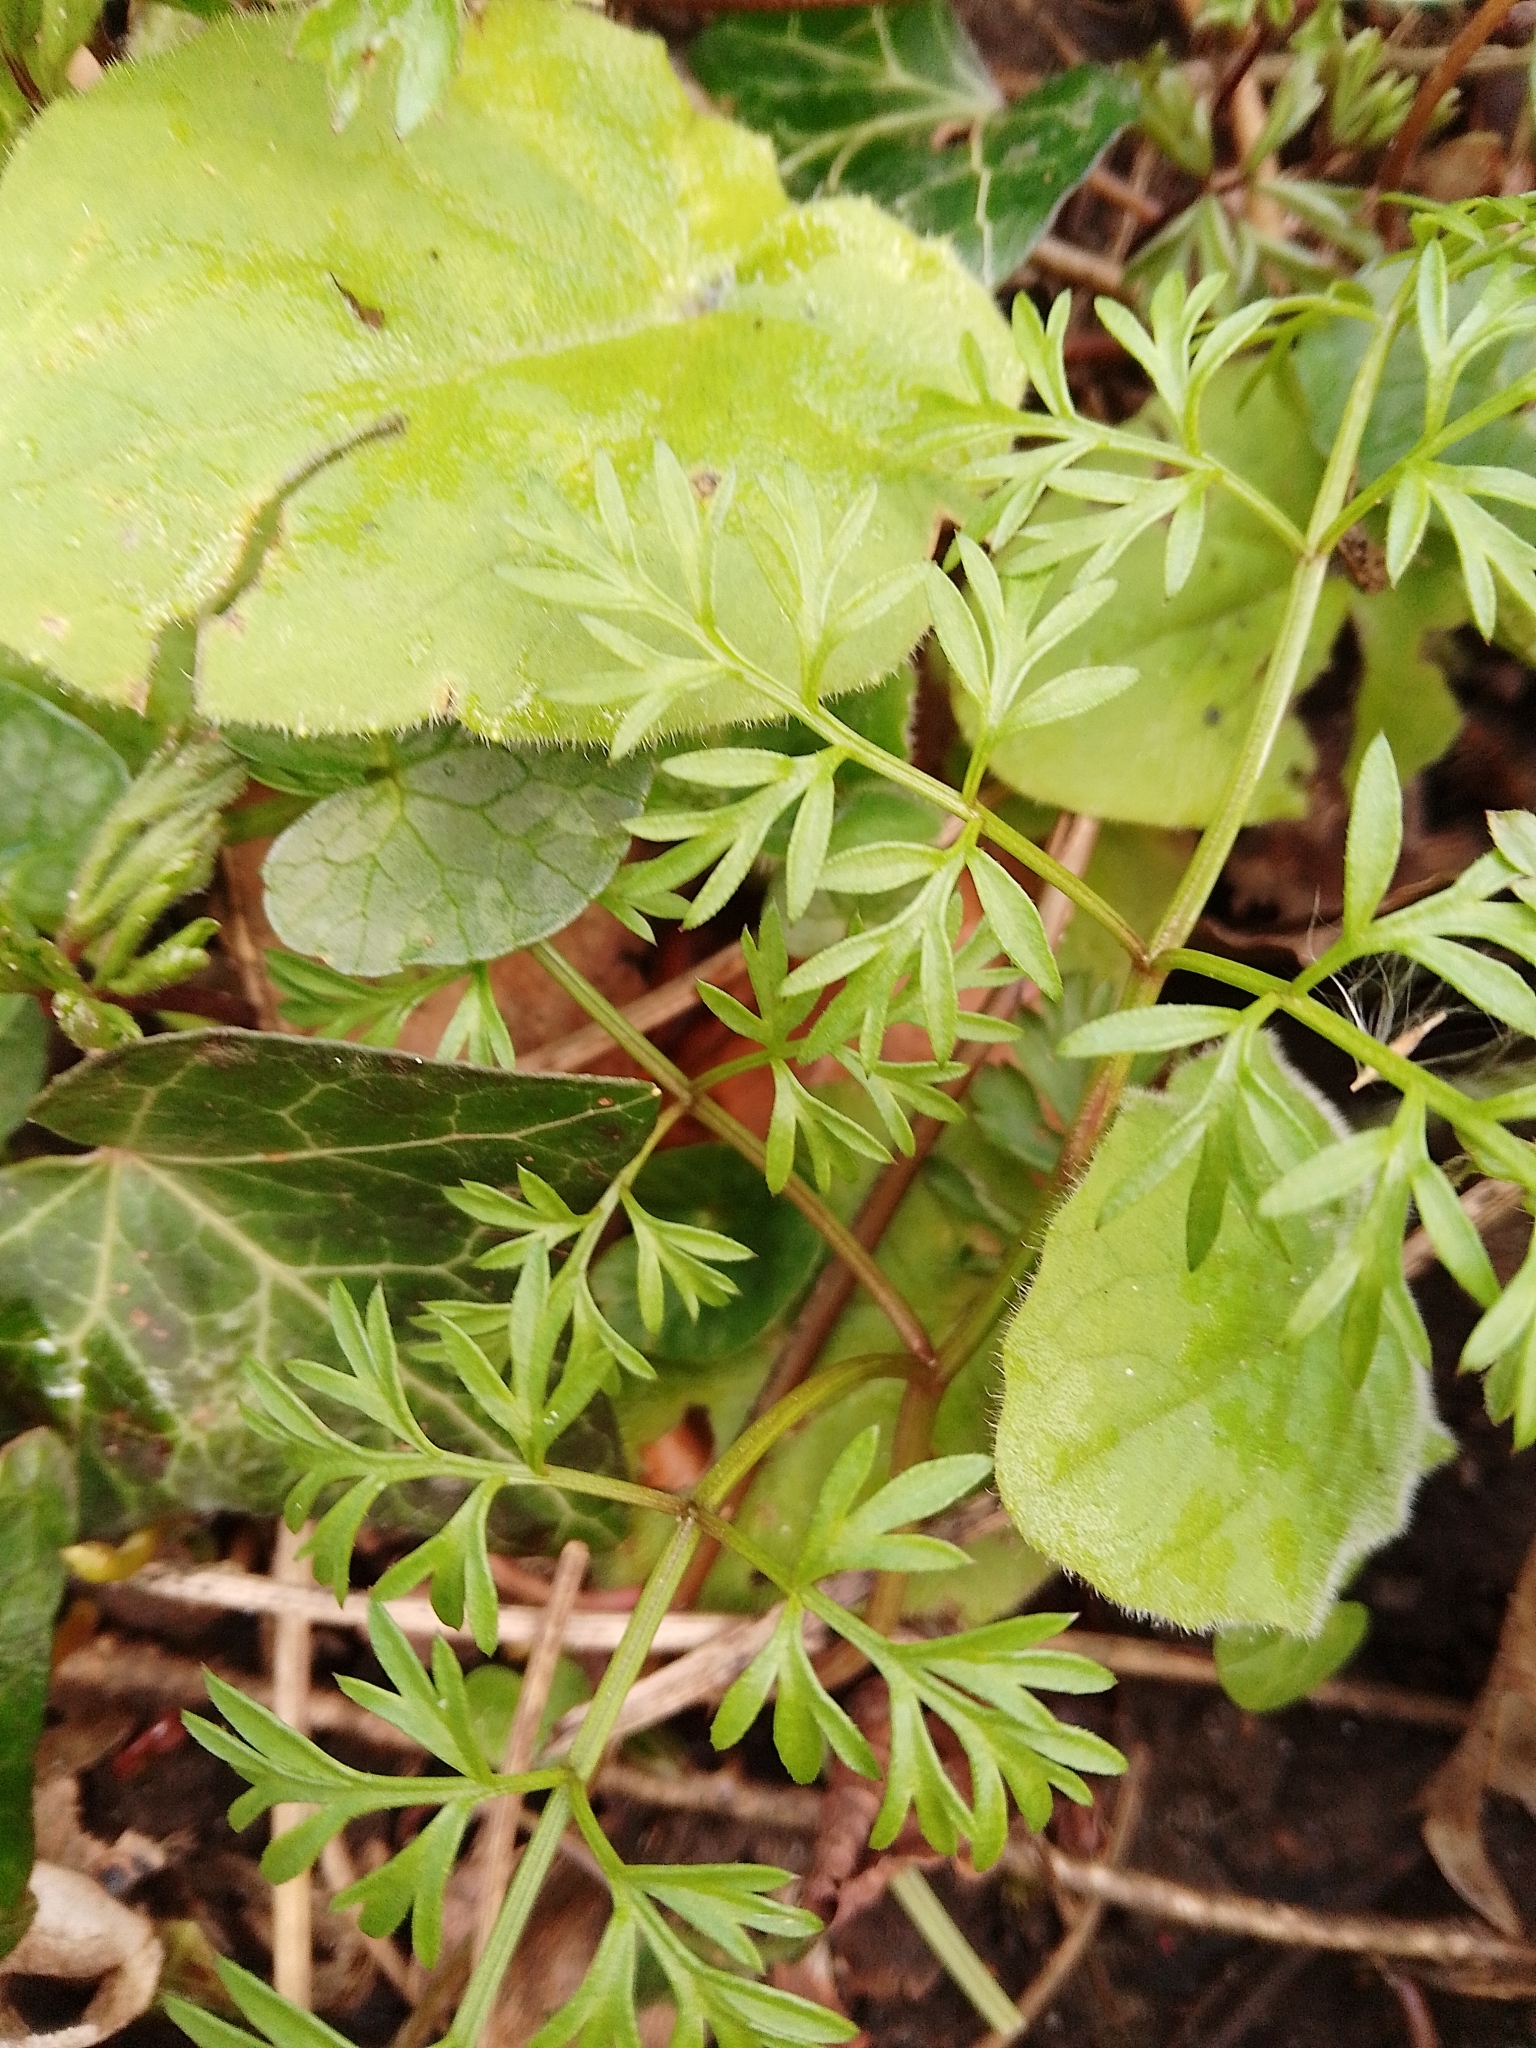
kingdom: Plantae
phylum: Tracheophyta
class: Magnoliopsida
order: Apiales
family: Apiaceae
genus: Conopodium
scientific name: Conopodium majus
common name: Pignut
